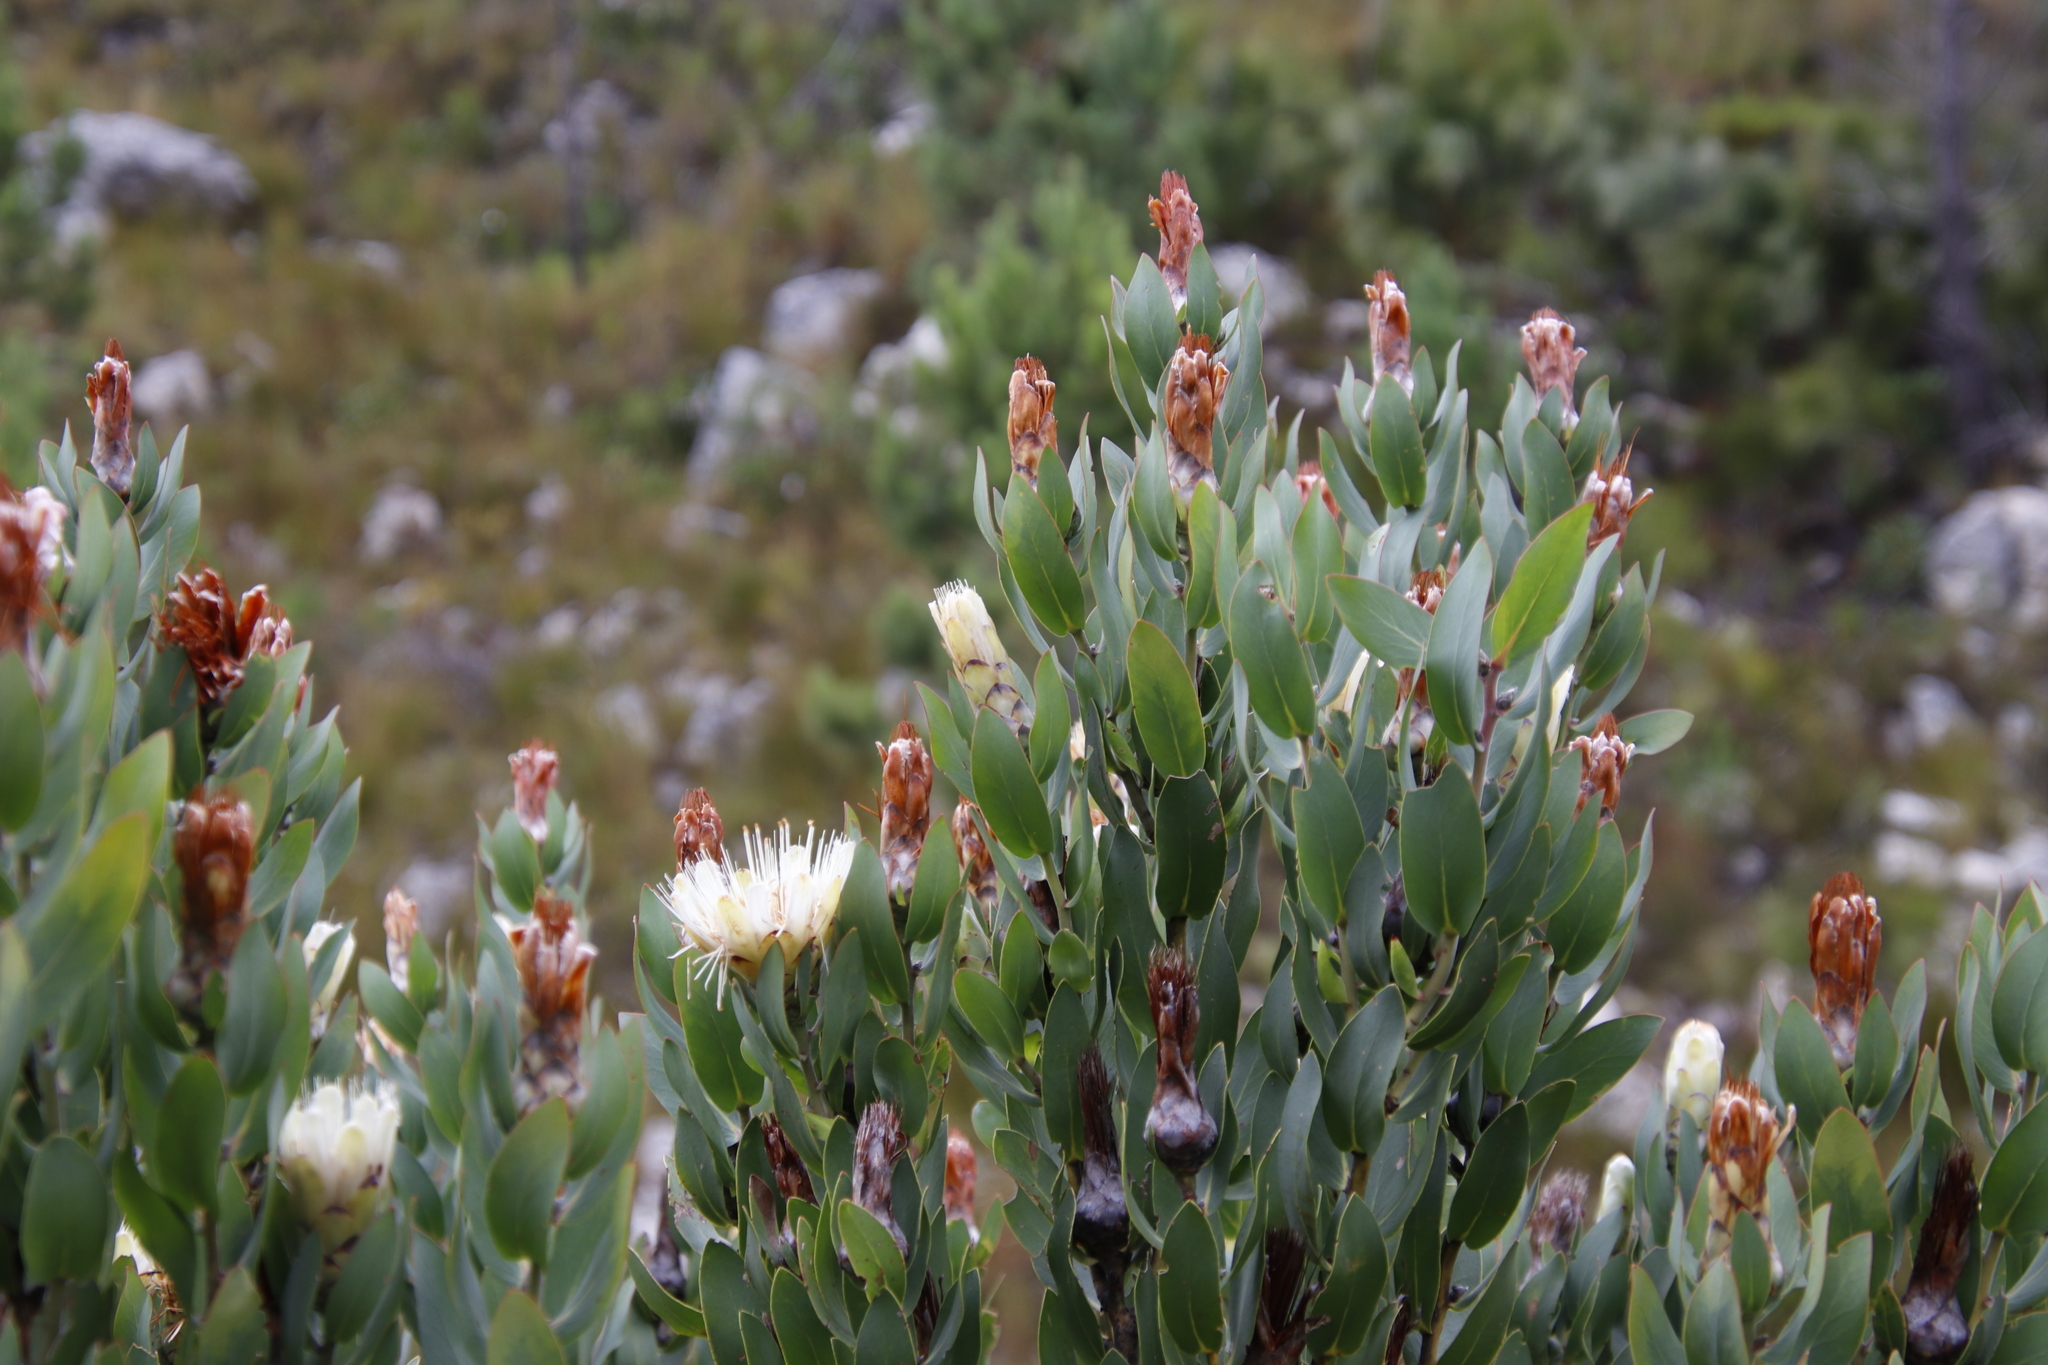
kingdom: Plantae
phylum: Tracheophyta
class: Magnoliopsida
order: Proteales
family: Proteaceae
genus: Protea
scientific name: Protea lacticolor
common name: Hottentot sugarbush
